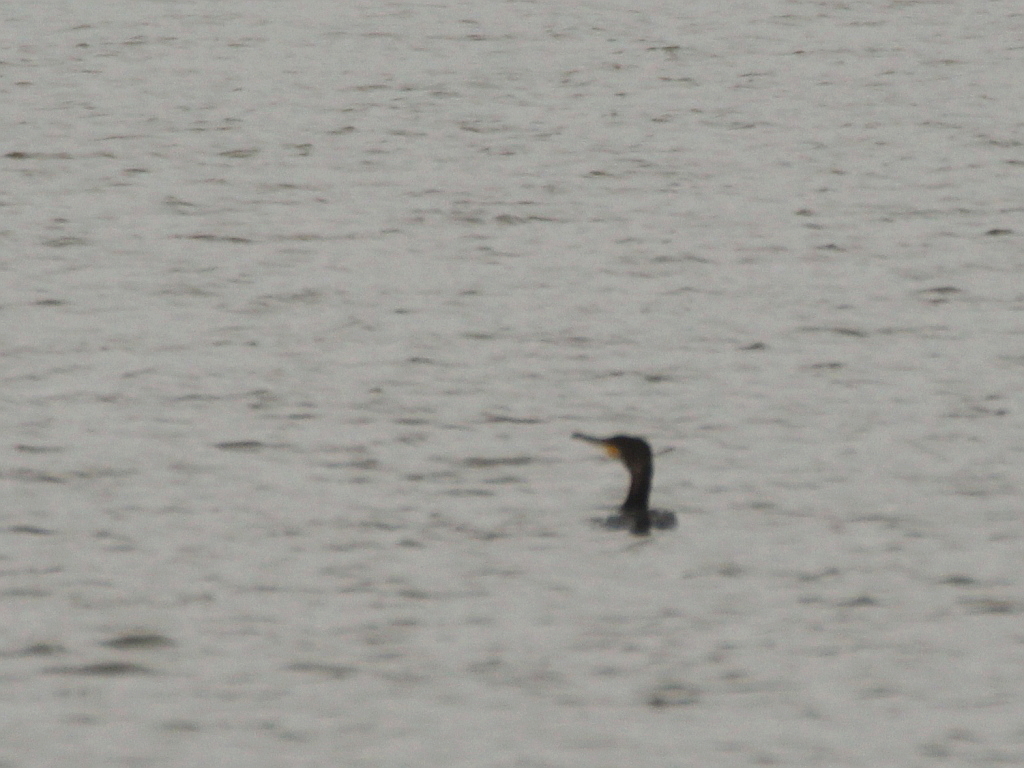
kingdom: Animalia
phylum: Chordata
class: Aves
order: Suliformes
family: Phalacrocoracidae
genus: Phalacrocorax
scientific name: Phalacrocorax carbo
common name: Great cormorant
